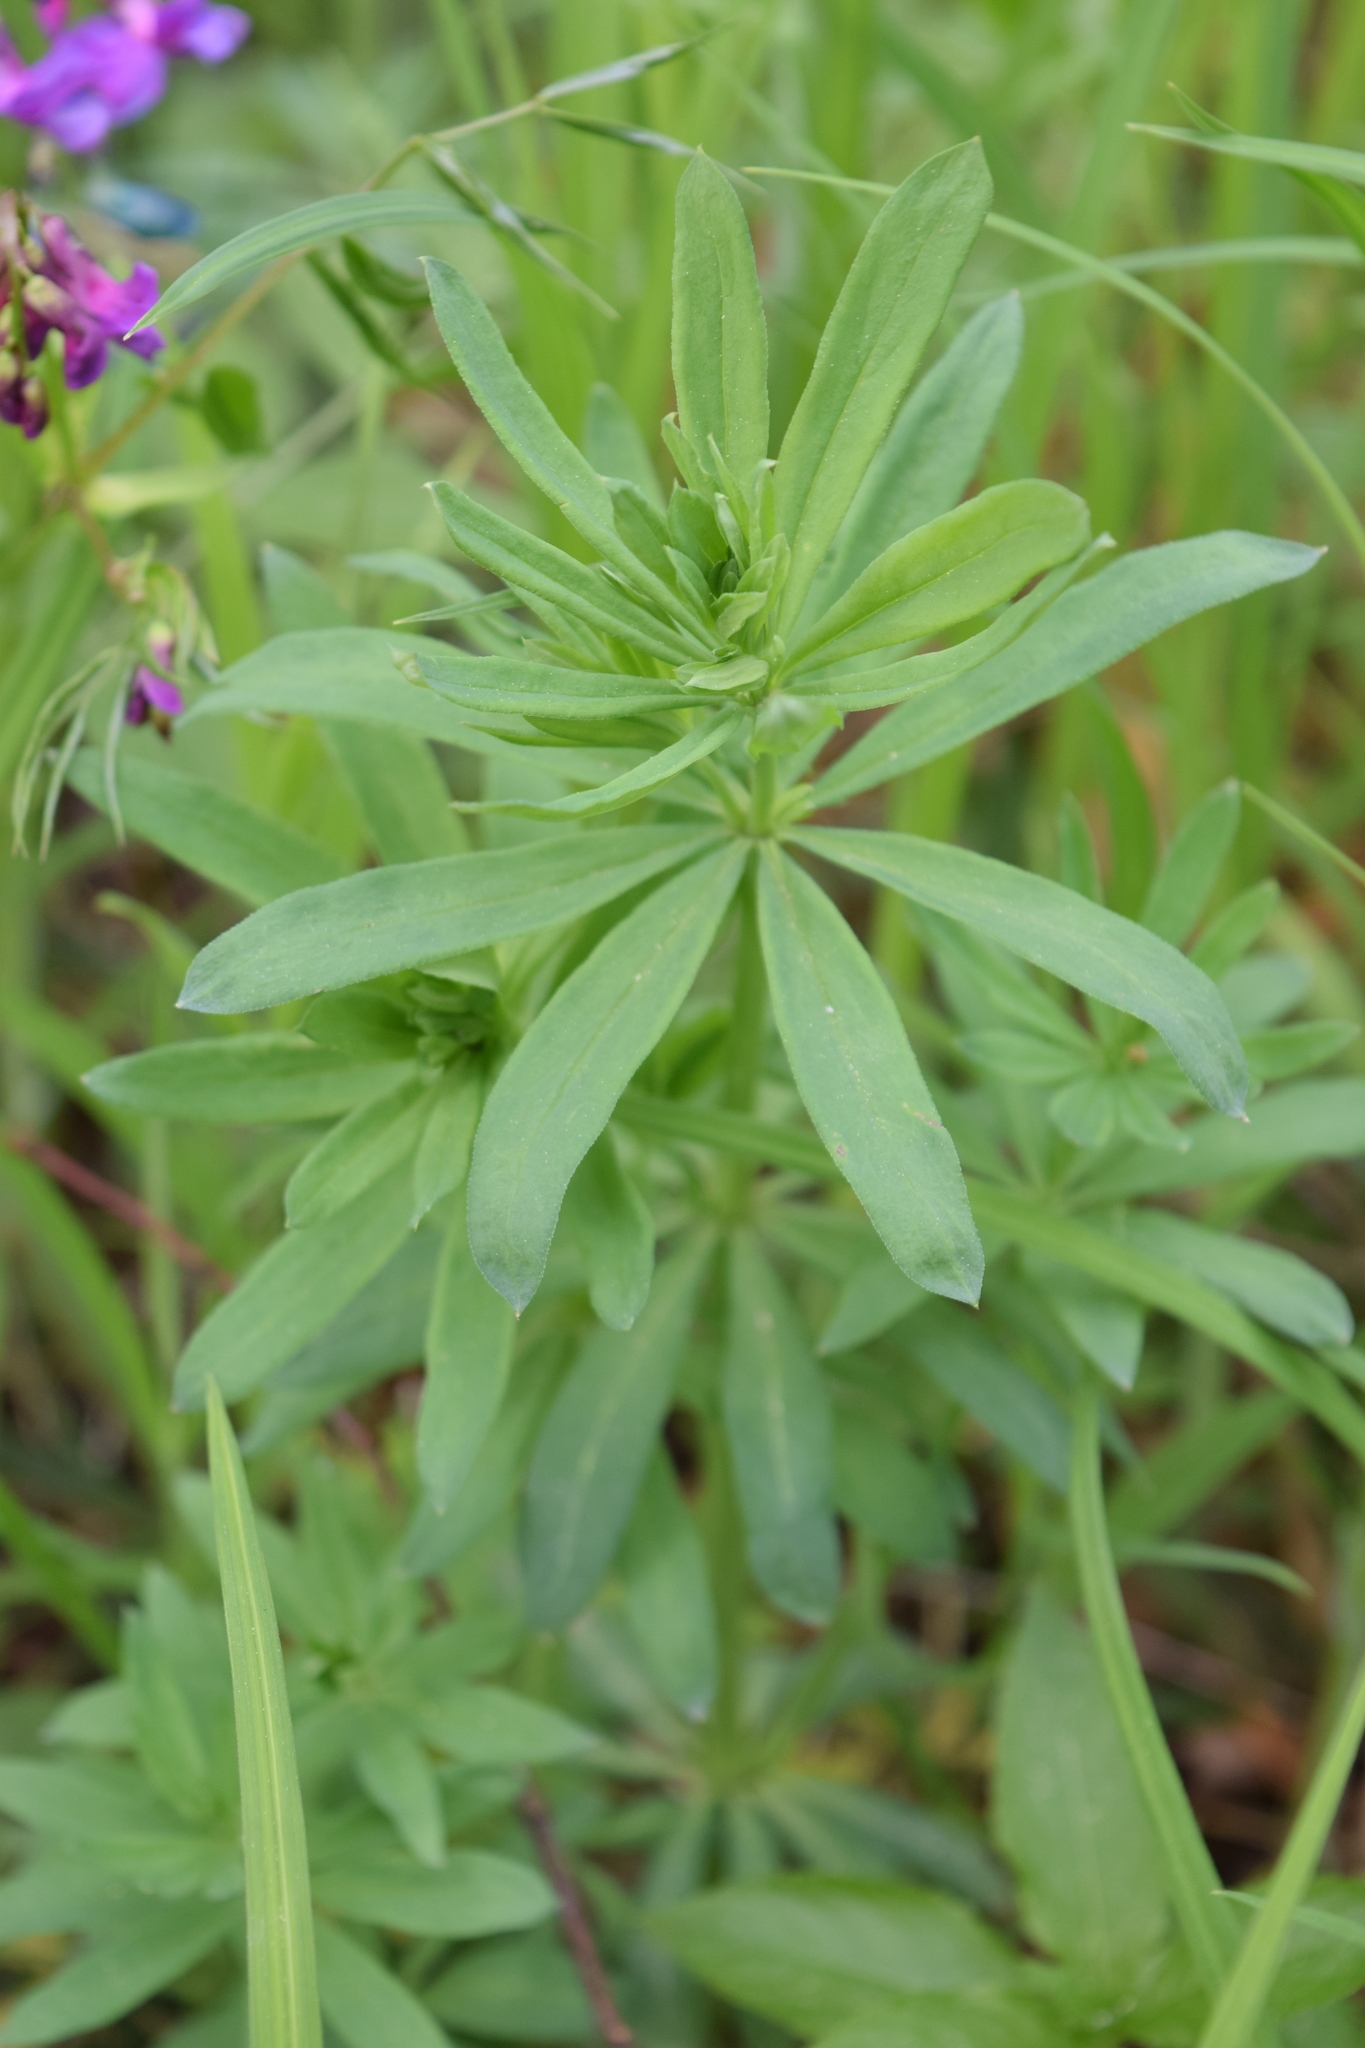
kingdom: Plantae
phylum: Tracheophyta
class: Magnoliopsida
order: Gentianales
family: Rubiaceae
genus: Galium
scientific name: Galium intermedium
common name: Bedstraw
